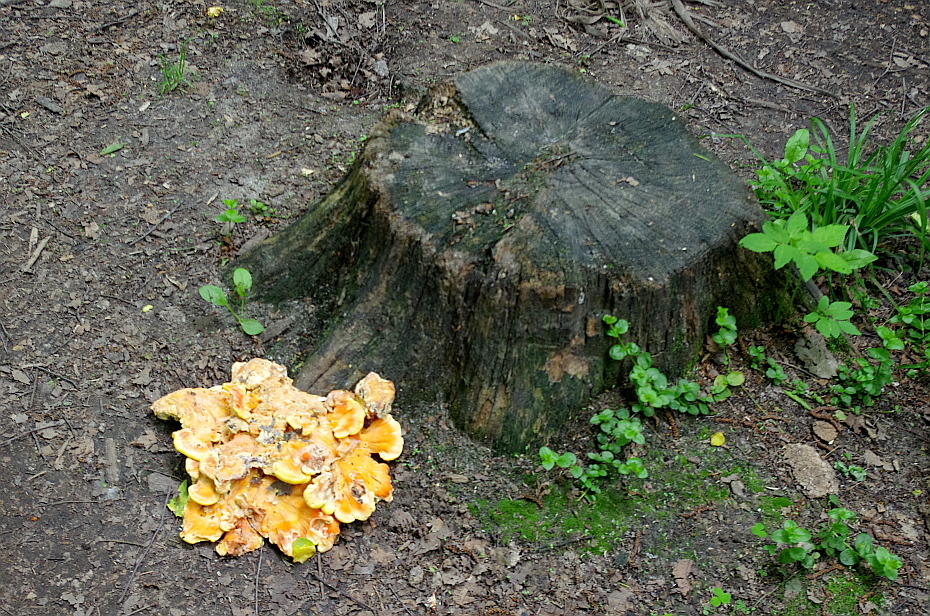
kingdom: Fungi
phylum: Basidiomycota
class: Agaricomycetes
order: Polyporales
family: Laetiporaceae
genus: Laetiporus
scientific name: Laetiporus sulphureus
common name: Chicken of the woods
